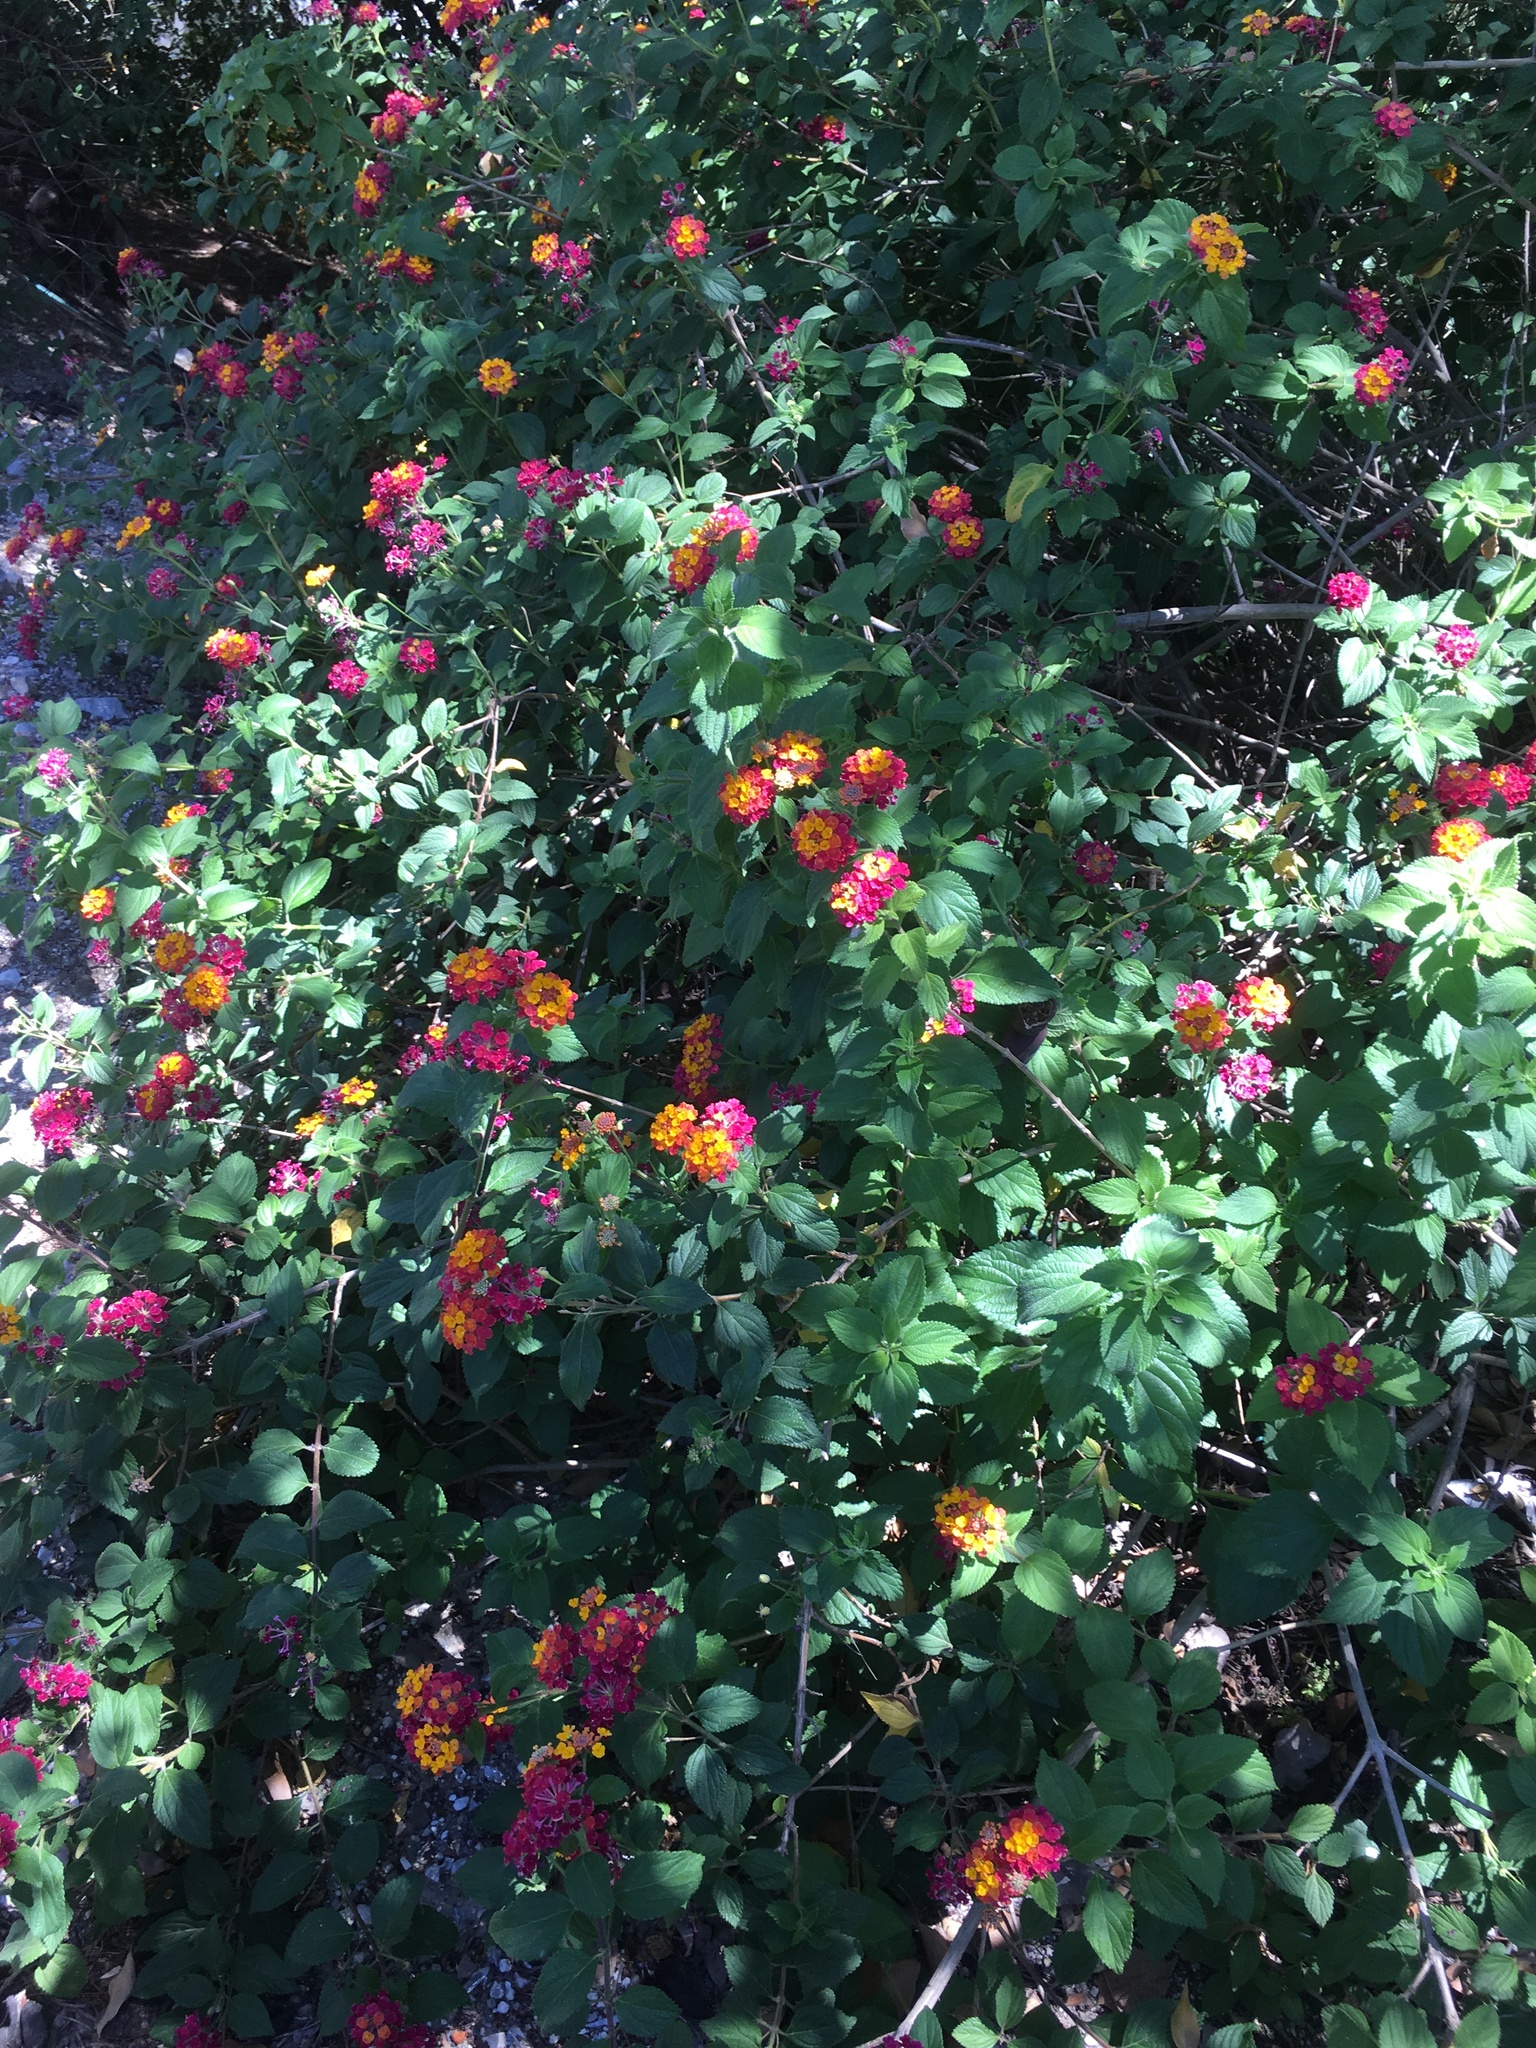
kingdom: Plantae
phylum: Tracheophyta
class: Magnoliopsida
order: Lamiales
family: Verbenaceae
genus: Lantana
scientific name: Lantana camara
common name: Lantana
